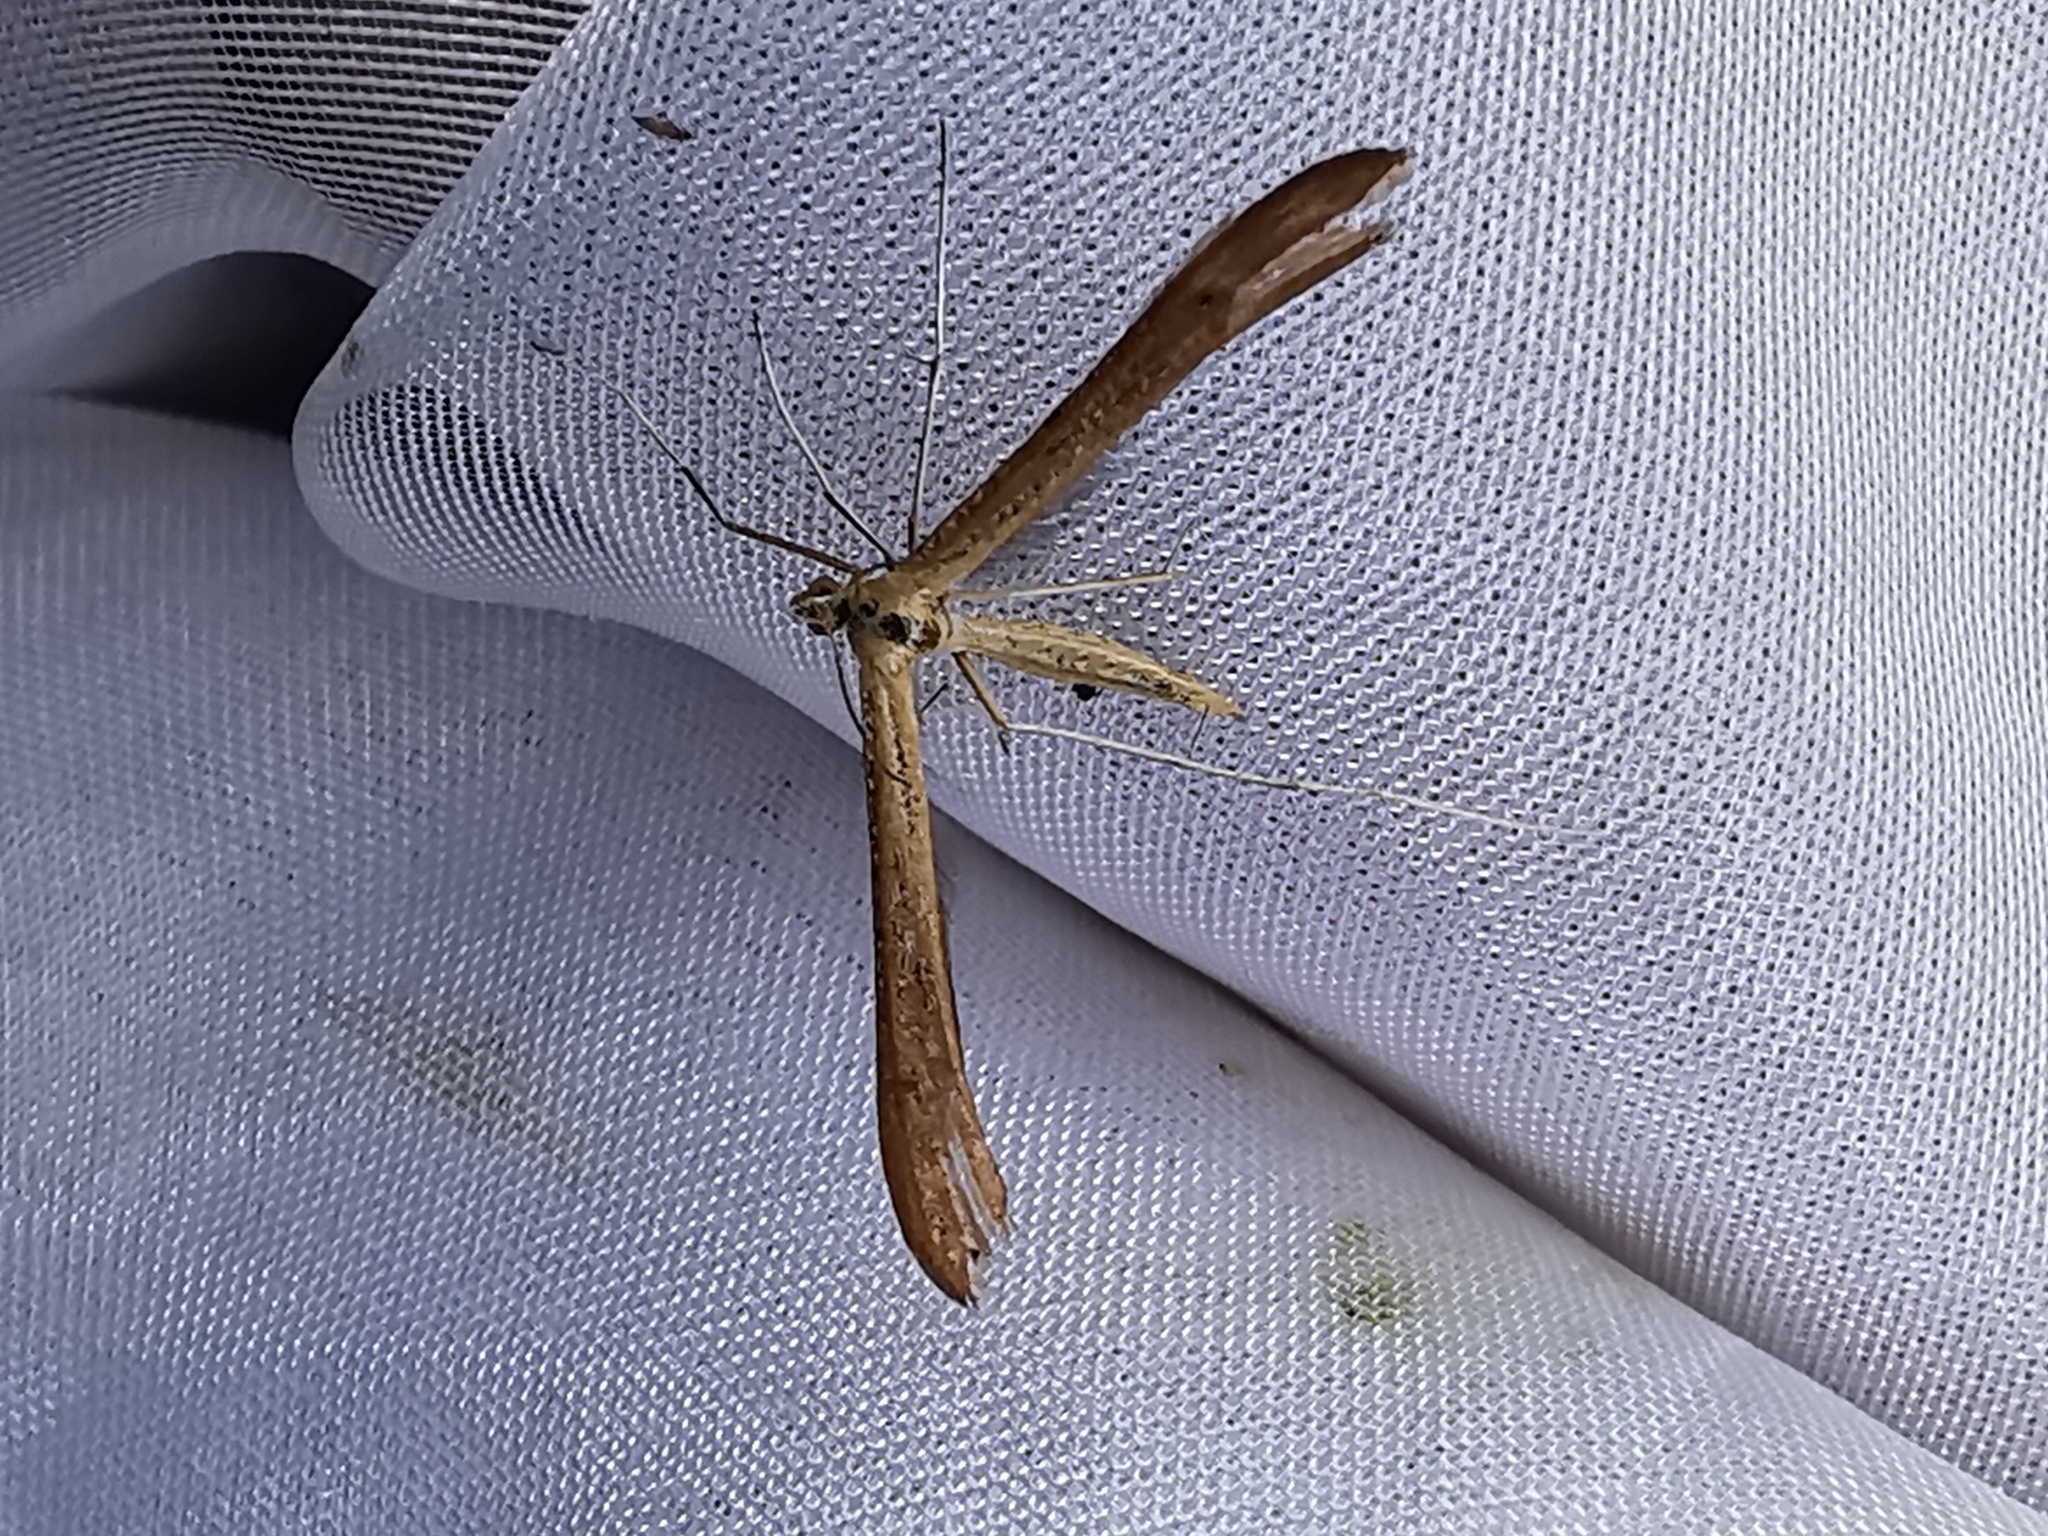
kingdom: Animalia
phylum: Arthropoda
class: Insecta
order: Lepidoptera
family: Pterophoridae
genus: Stenoptilia
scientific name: Stenoptilia pterodactyla
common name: Brown plume
